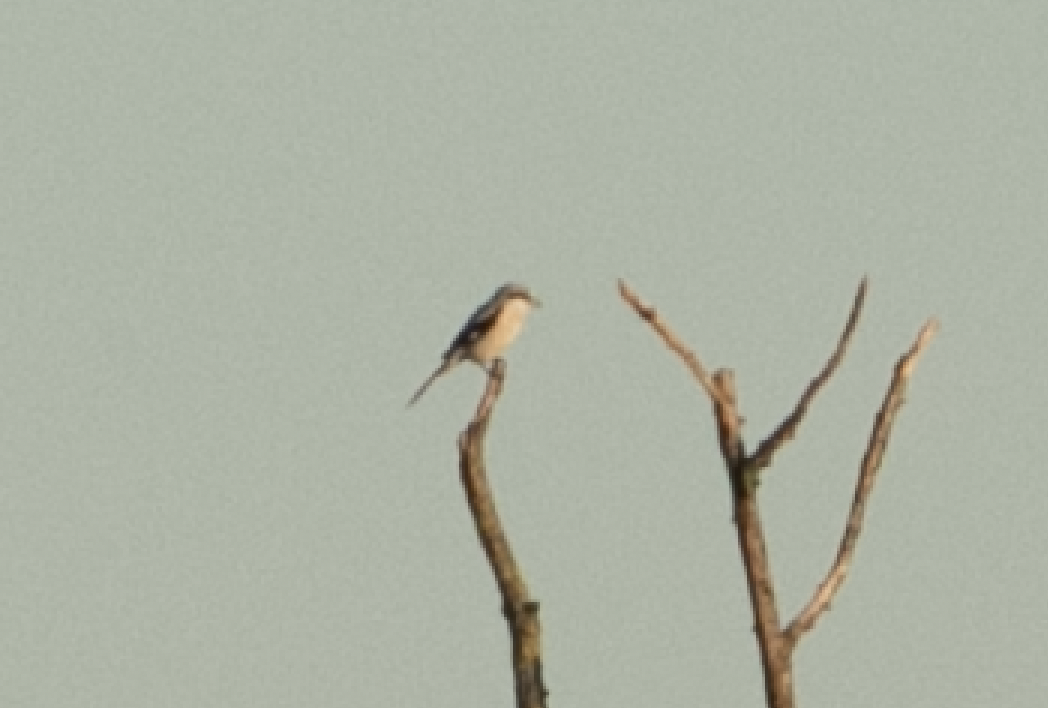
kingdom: Animalia
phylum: Chordata
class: Aves
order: Passeriformes
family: Laniidae
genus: Lanius
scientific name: Lanius excubitor
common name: Great grey shrike
